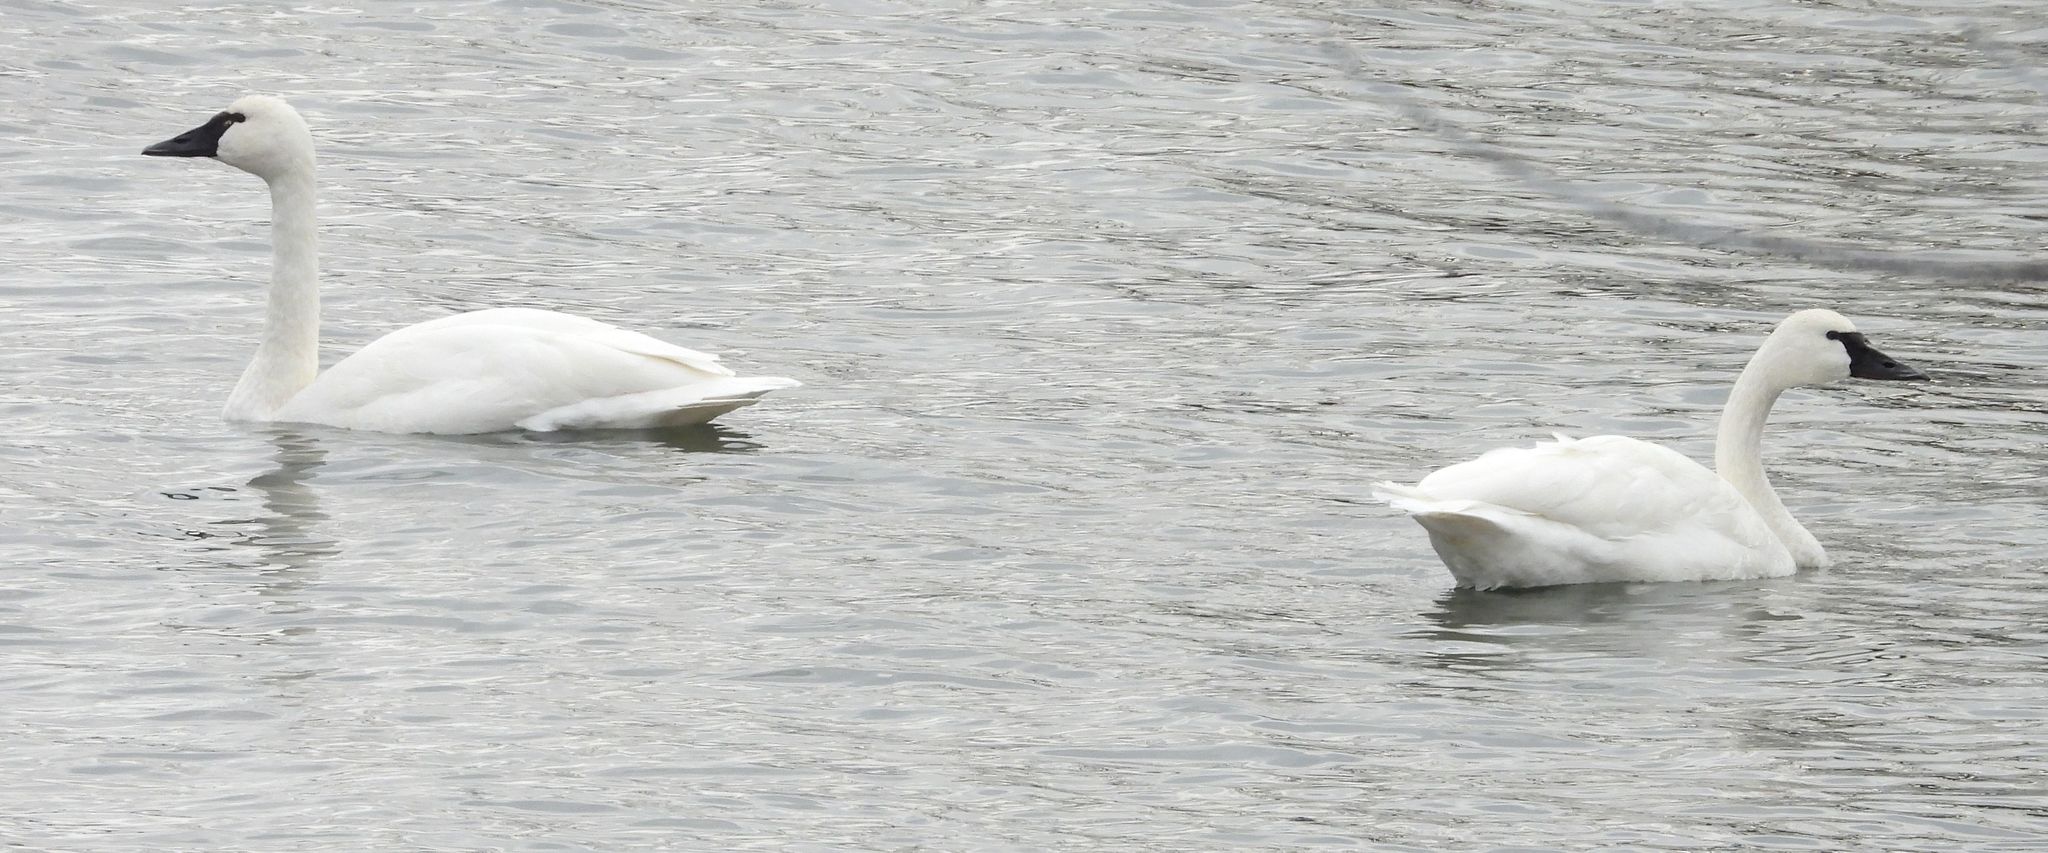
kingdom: Animalia
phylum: Chordata
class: Aves
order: Anseriformes
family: Anatidae
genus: Cygnus
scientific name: Cygnus columbianus
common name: Tundra swan
